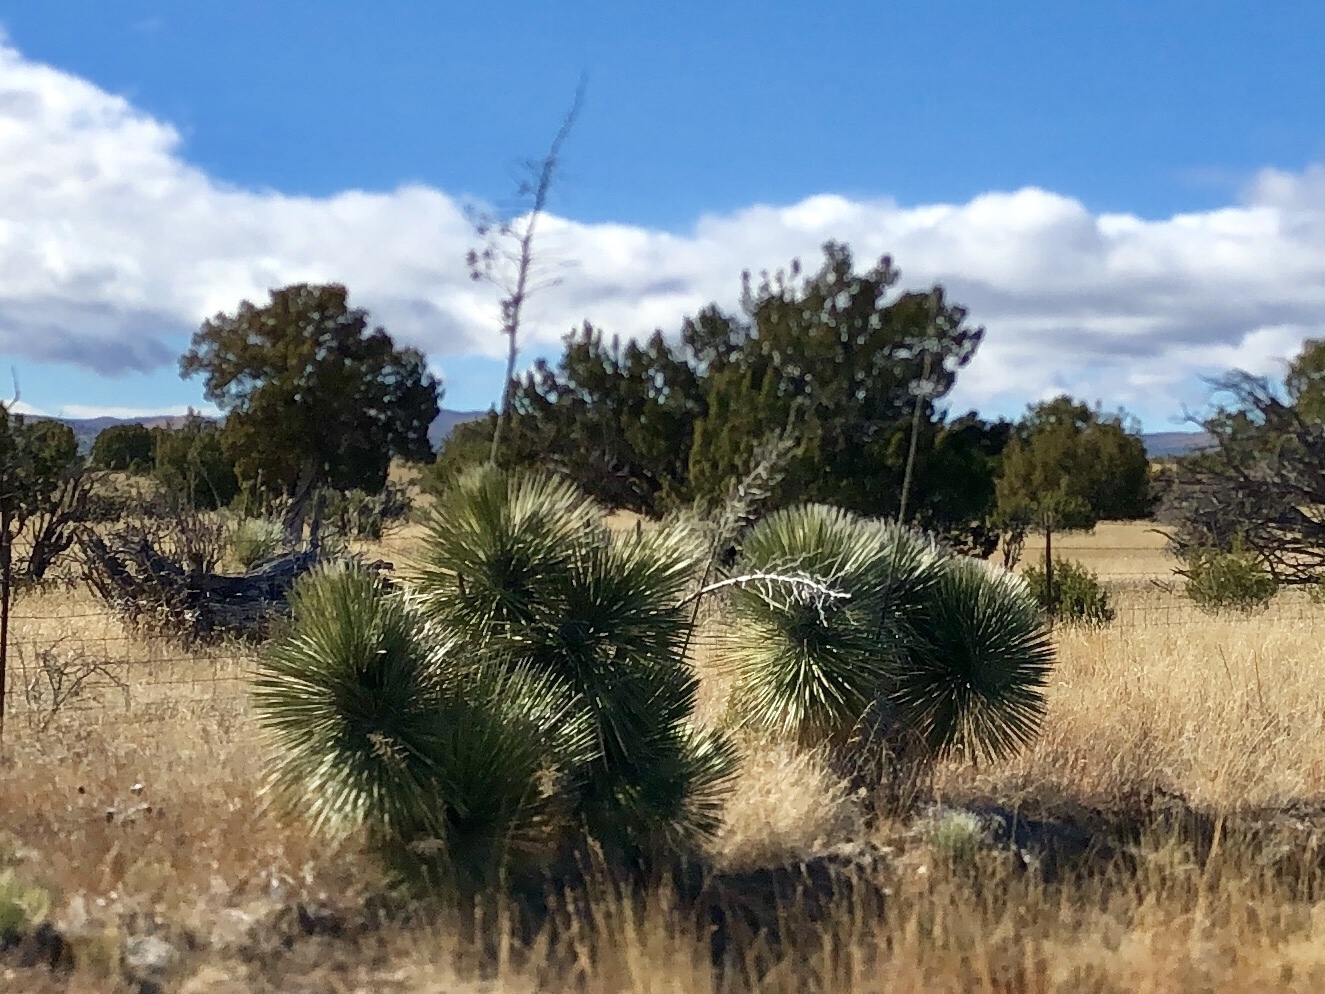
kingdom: Plantae
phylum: Tracheophyta
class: Liliopsida
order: Asparagales
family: Asparagaceae
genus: Yucca
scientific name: Yucca elata
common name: Palmella
